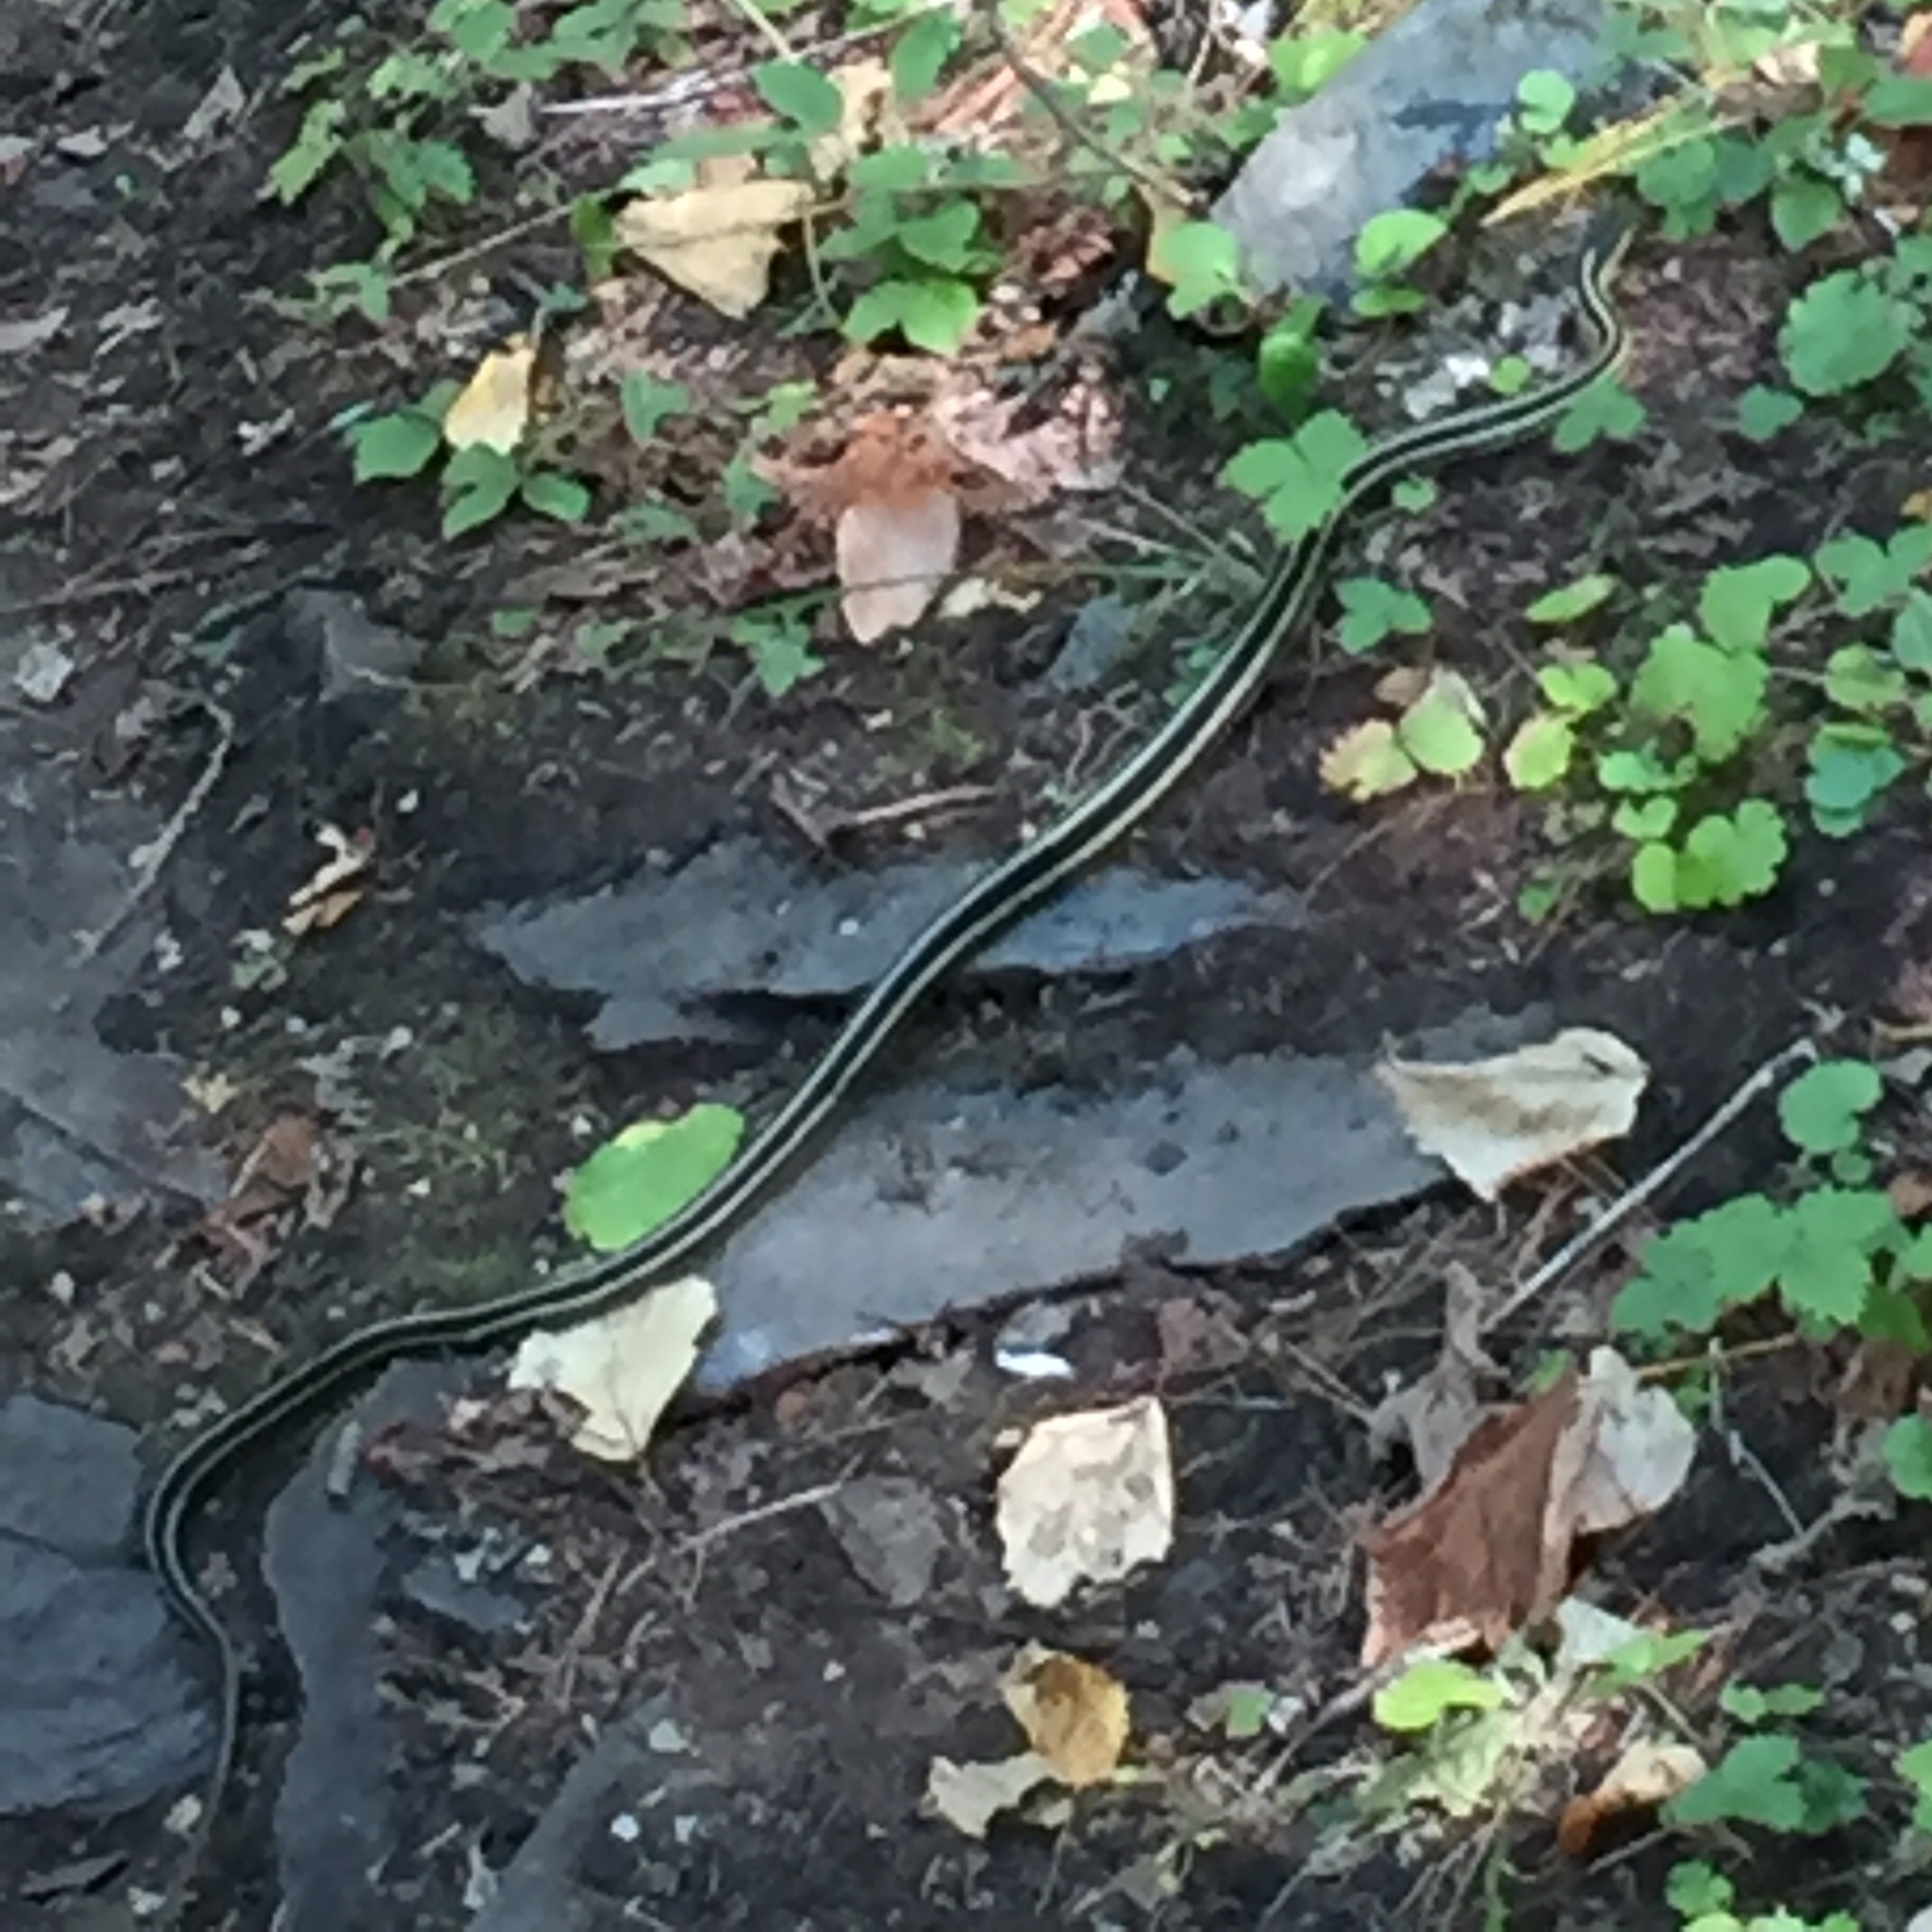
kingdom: Animalia
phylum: Chordata
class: Squamata
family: Colubridae
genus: Thamnophis
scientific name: Thamnophis sirtalis
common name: Common garter snake
